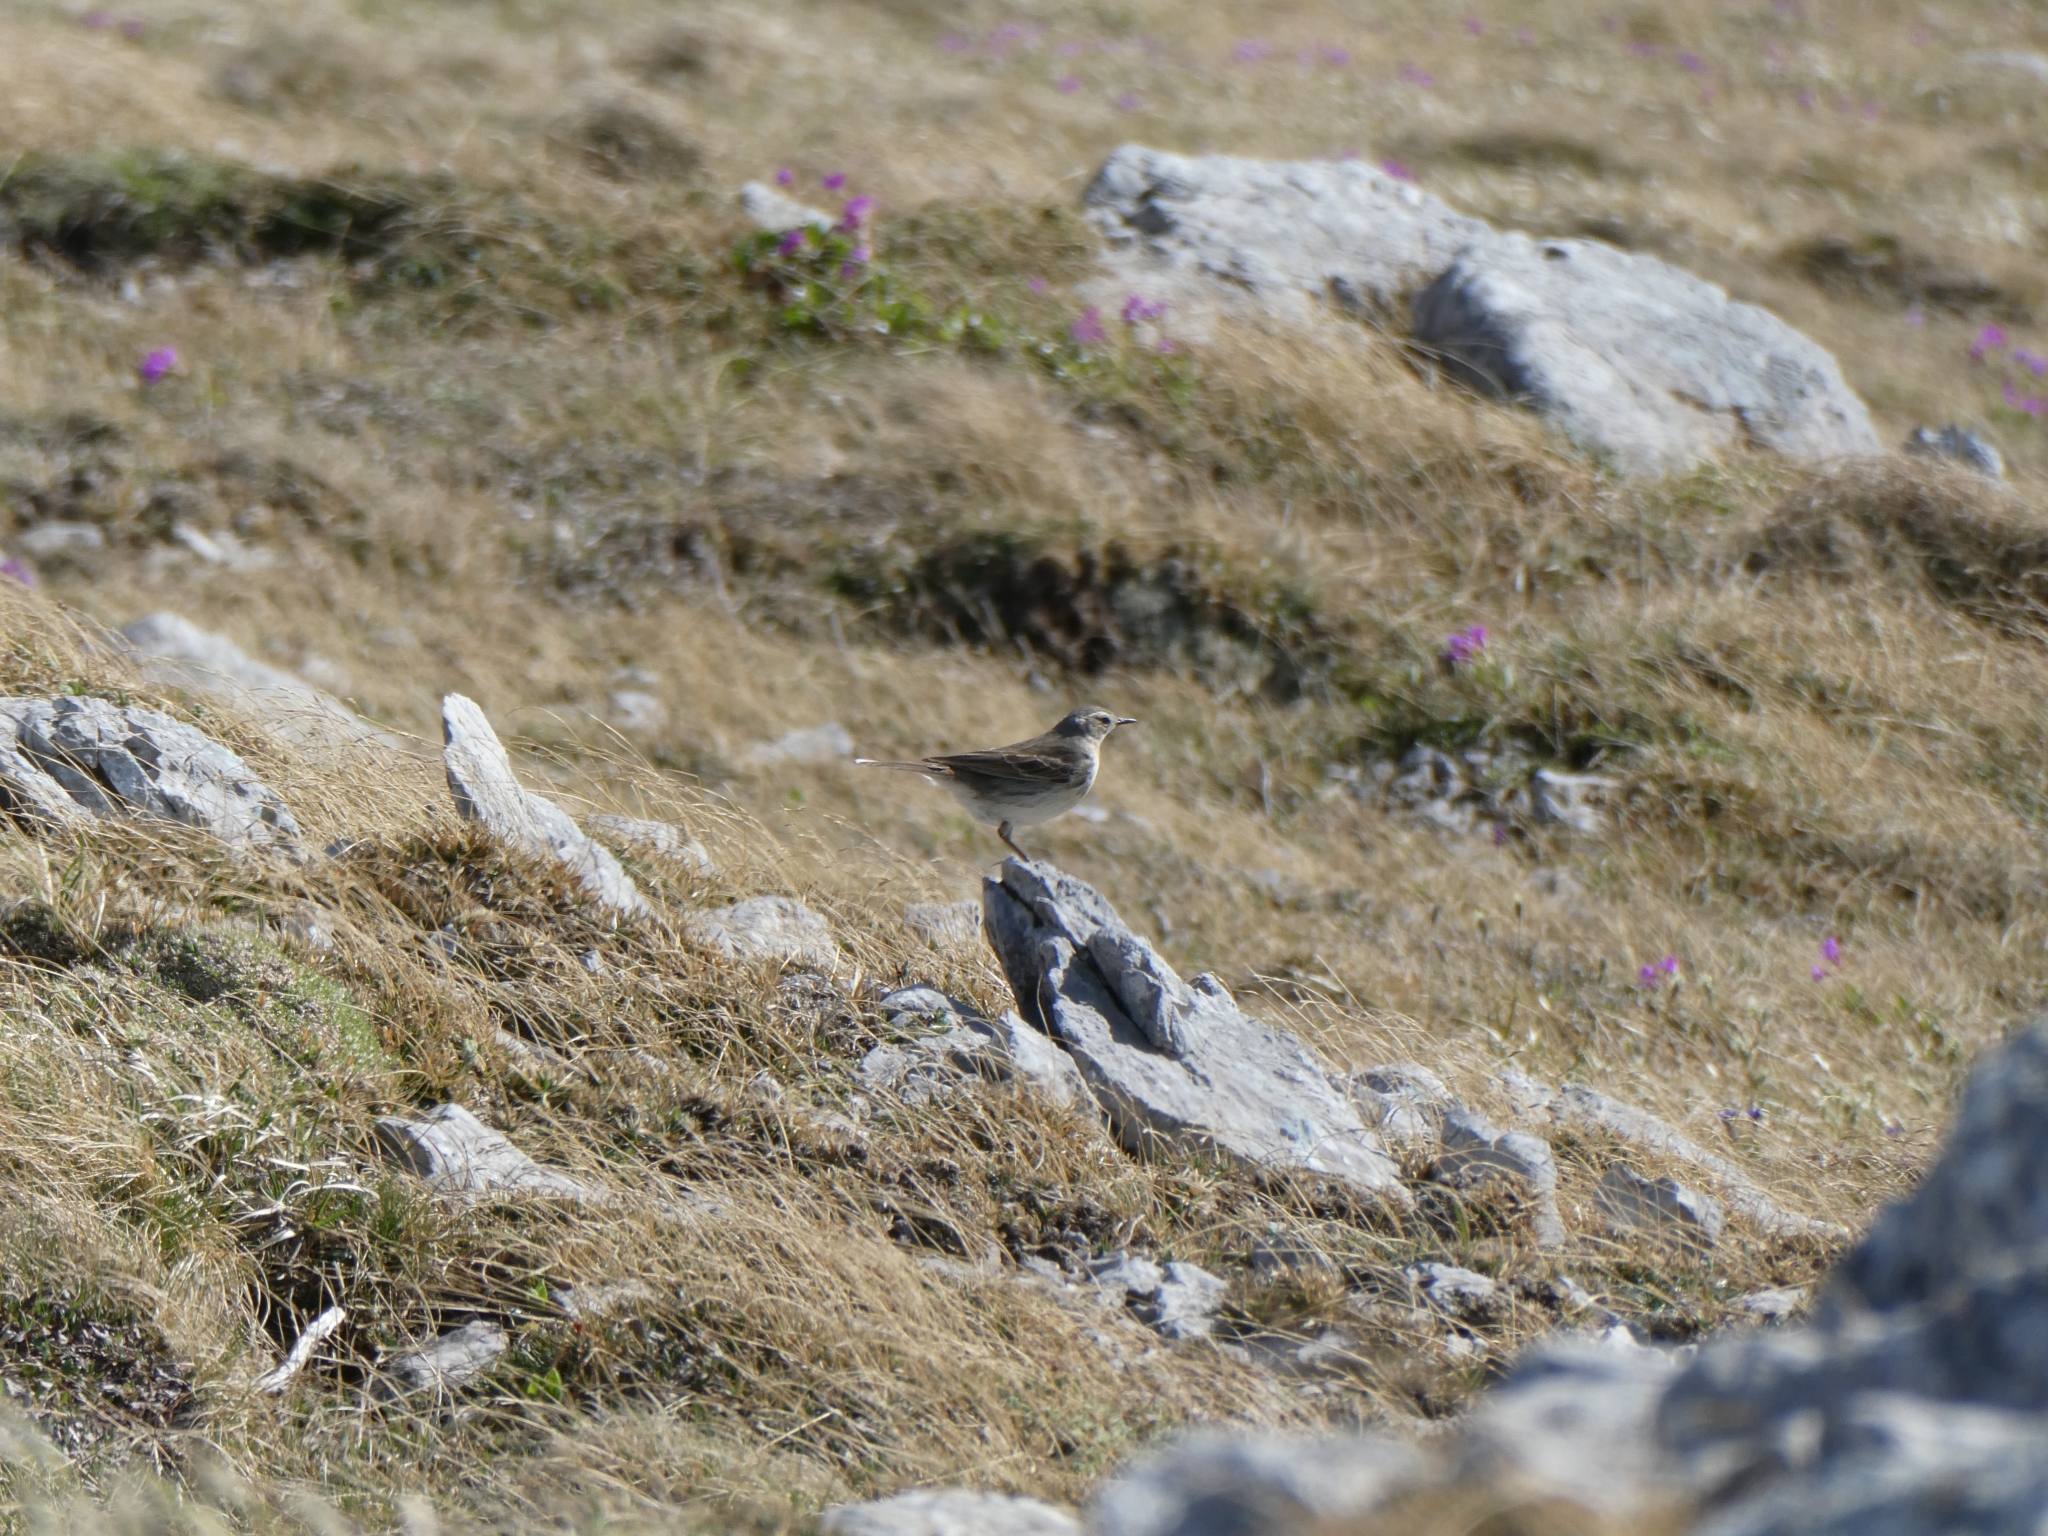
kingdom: Animalia
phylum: Chordata
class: Aves
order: Passeriformes
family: Motacillidae
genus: Anthus
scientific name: Anthus spinoletta
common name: Water pipit
